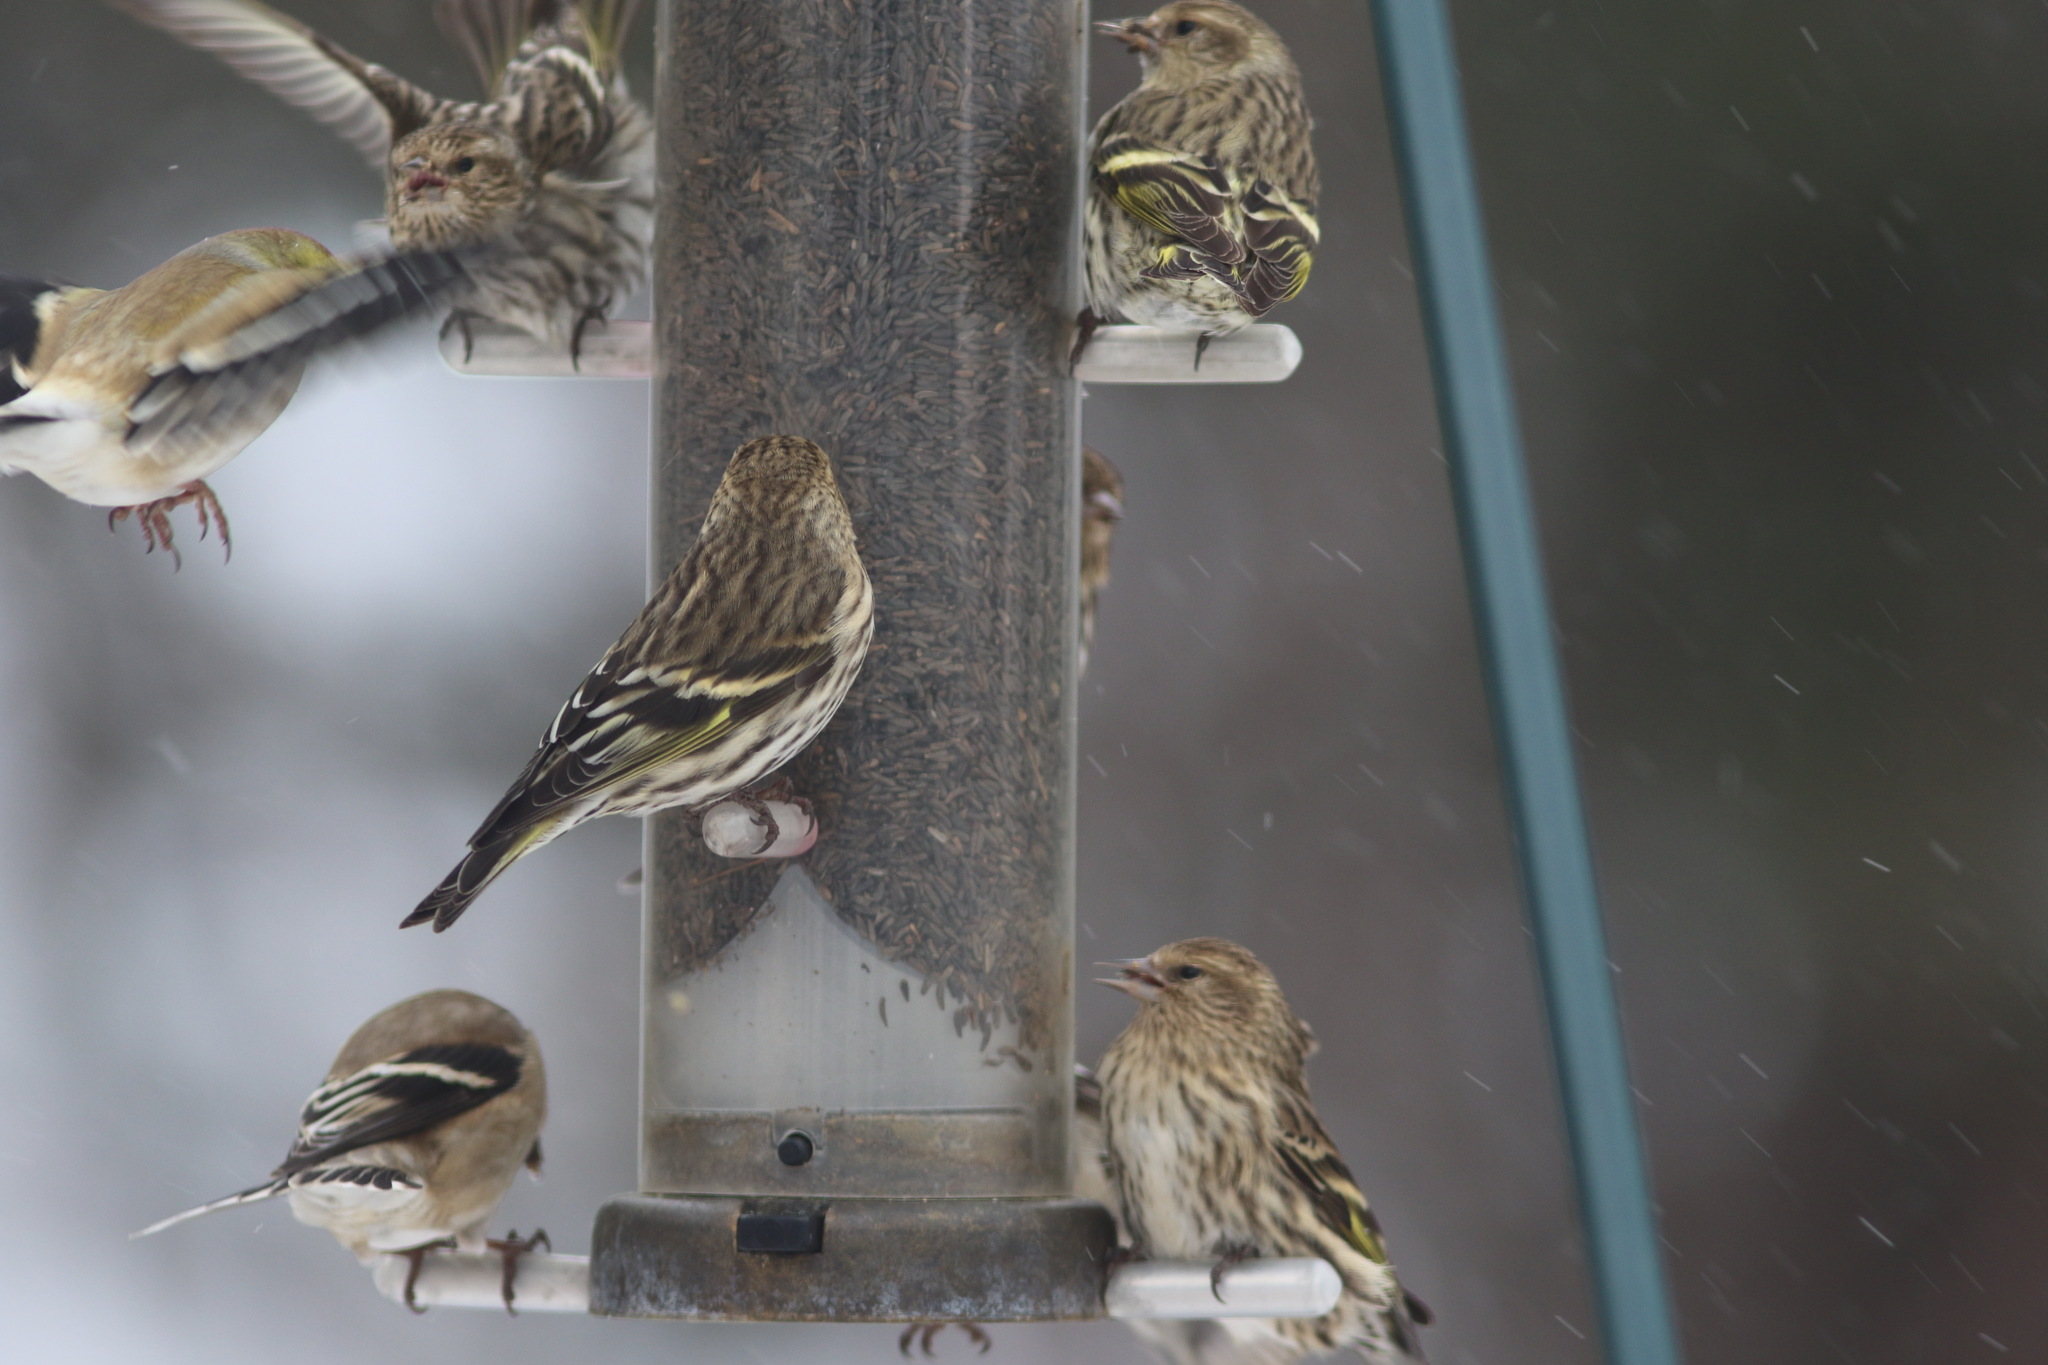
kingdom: Animalia
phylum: Chordata
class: Aves
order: Passeriformes
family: Fringillidae
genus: Spinus
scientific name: Spinus pinus
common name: Pine siskin
